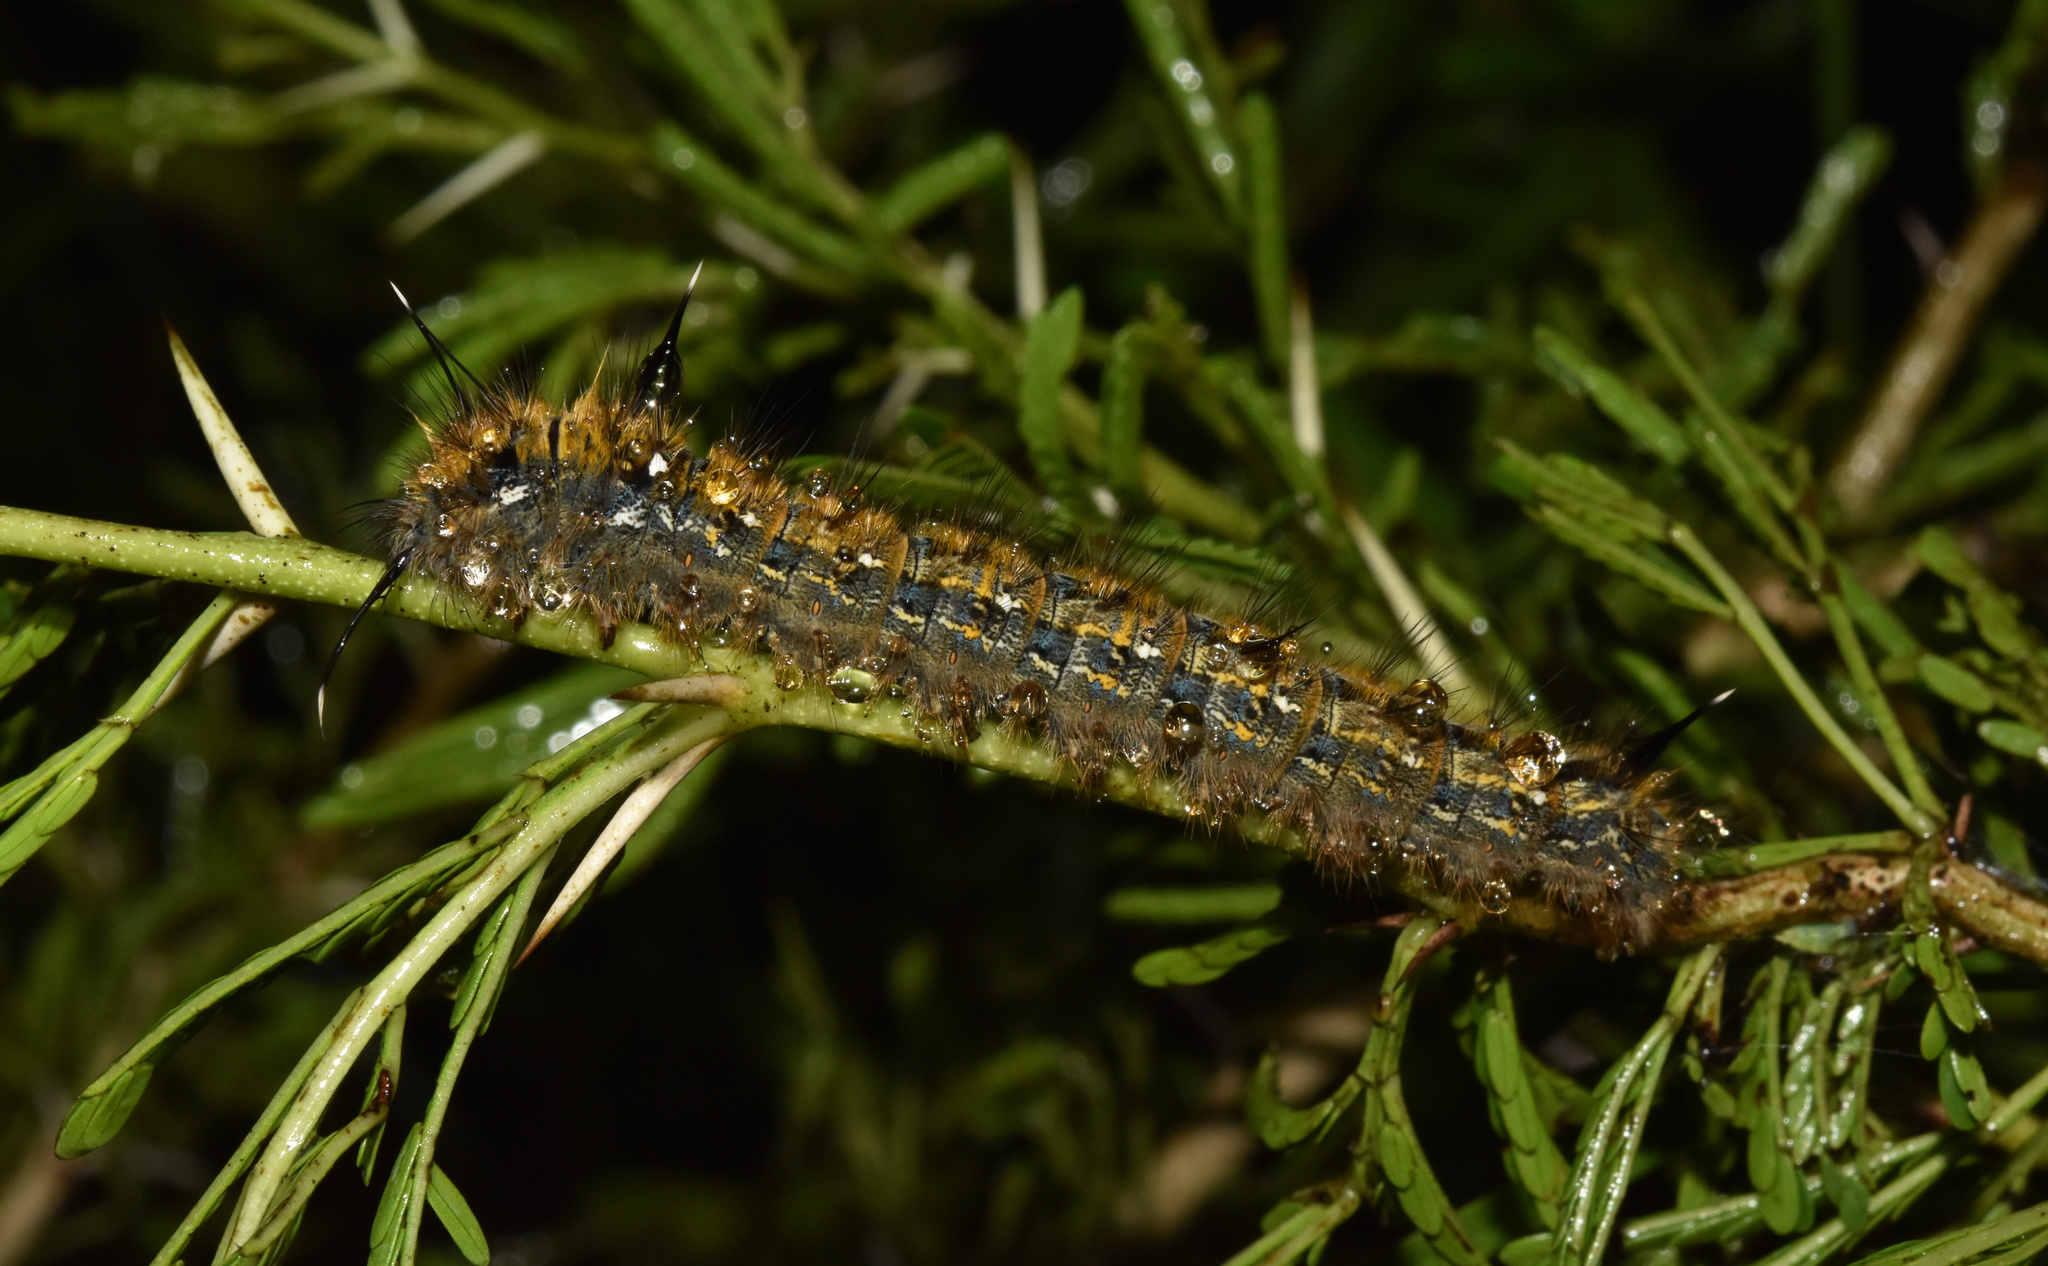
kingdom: Animalia
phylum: Arthropoda
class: Insecta
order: Lepidoptera
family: Lasiocampidae
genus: Sena
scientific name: Sena prompta
